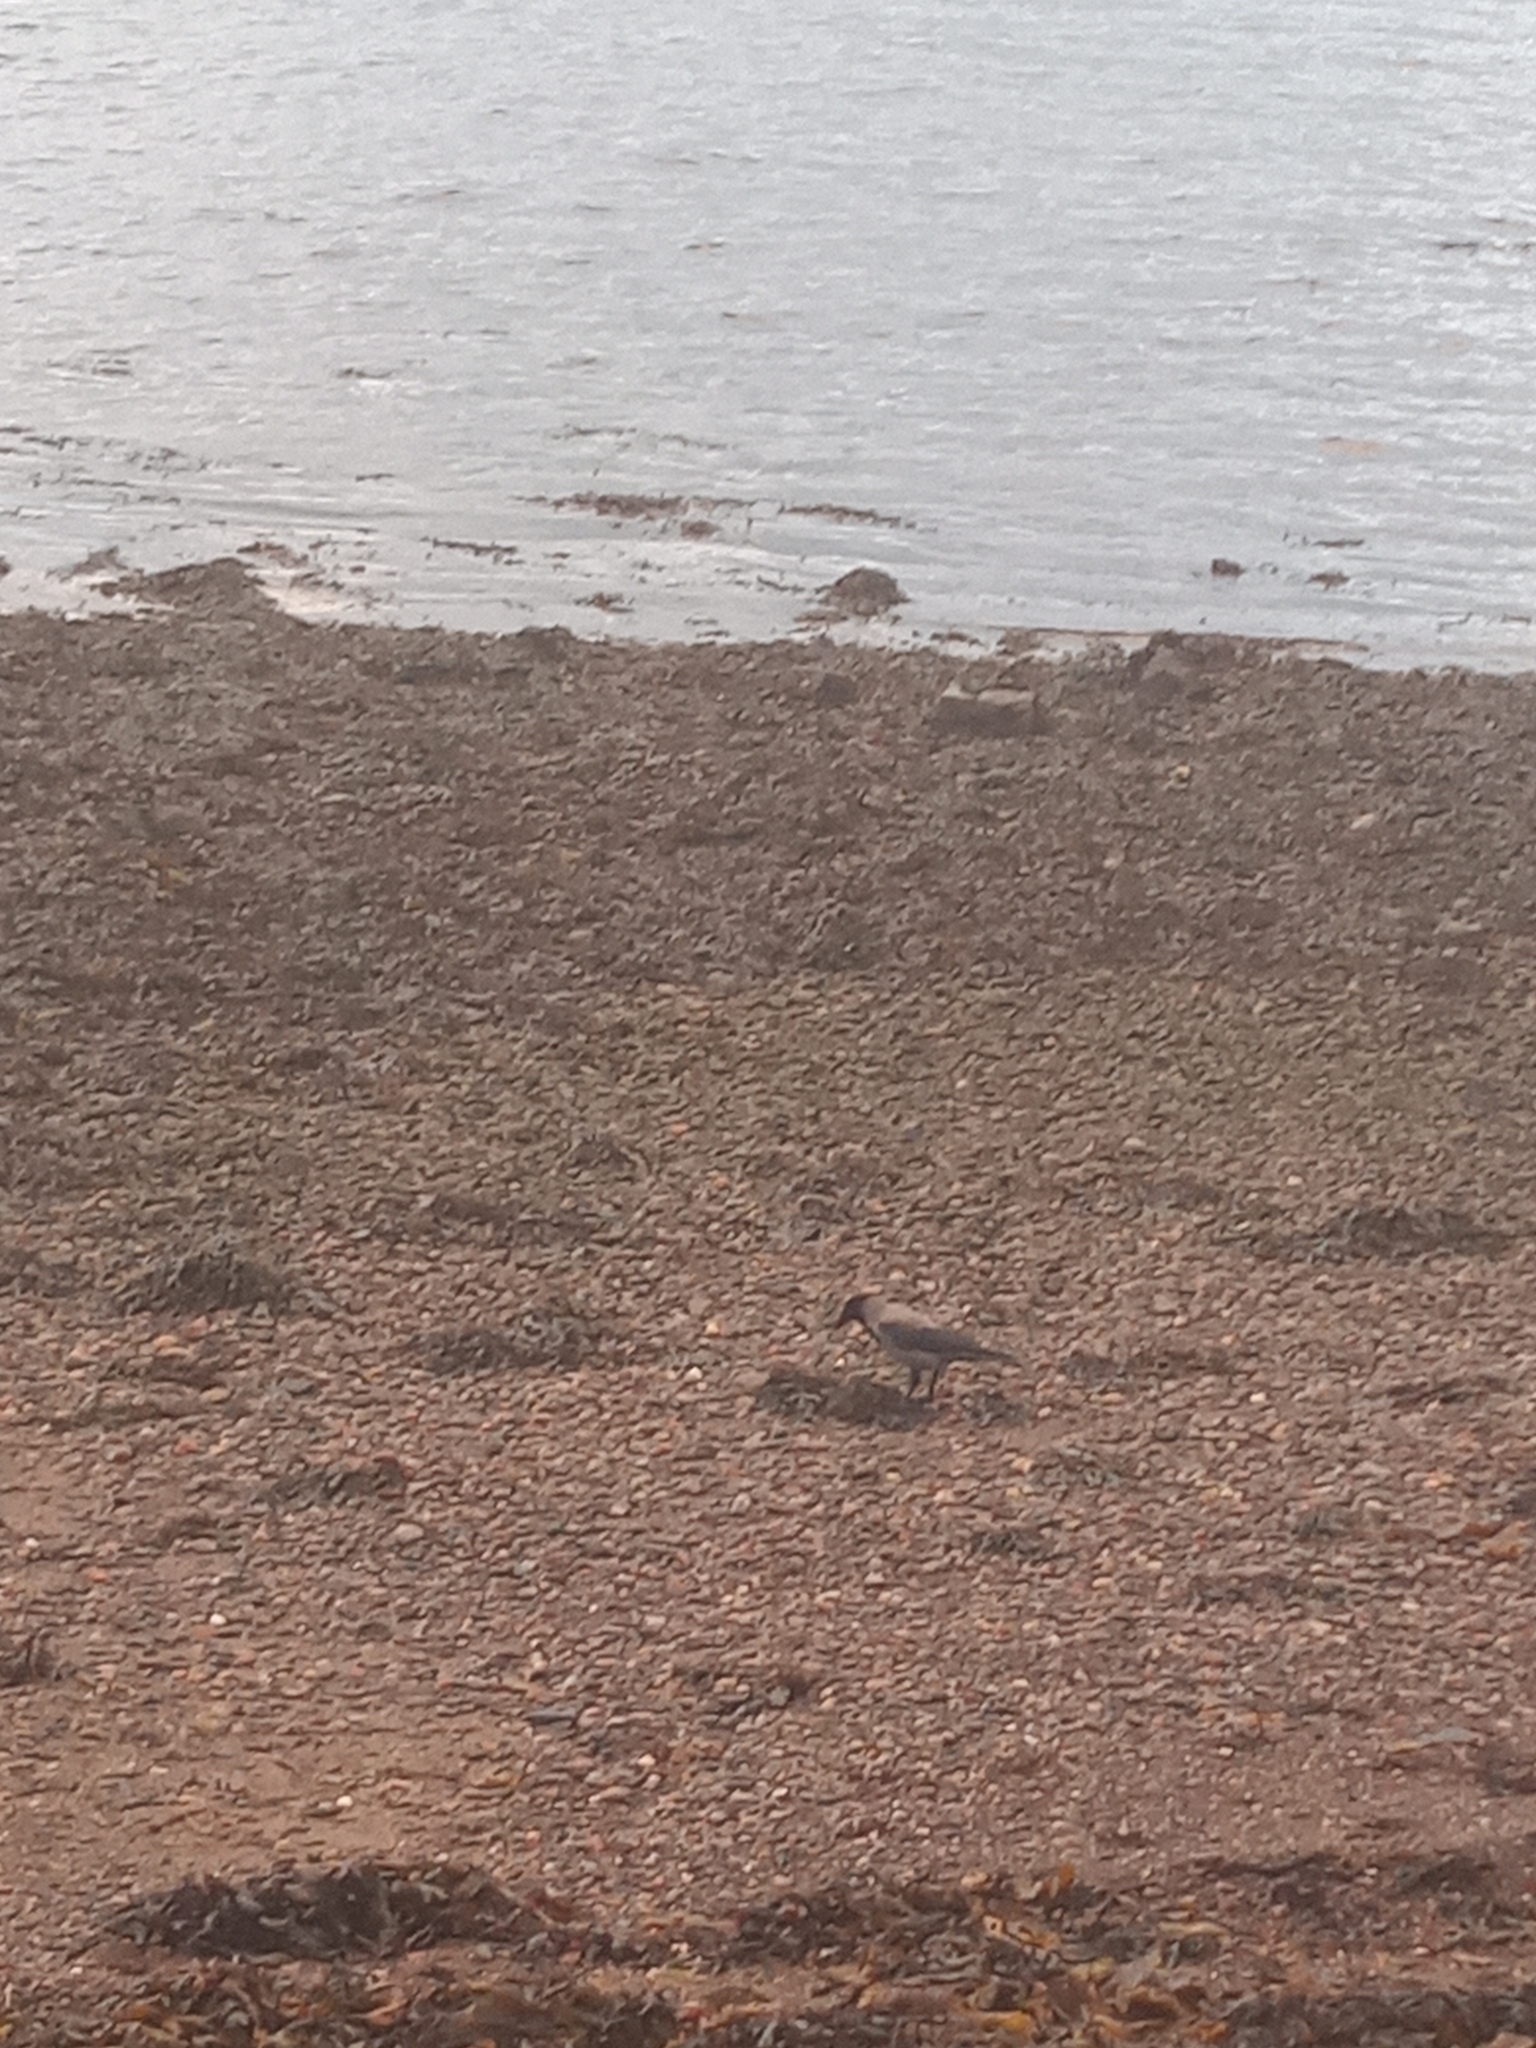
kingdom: Animalia
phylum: Chordata
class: Aves
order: Passeriformes
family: Corvidae
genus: Corvus
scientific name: Corvus cornix
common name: Hooded crow
